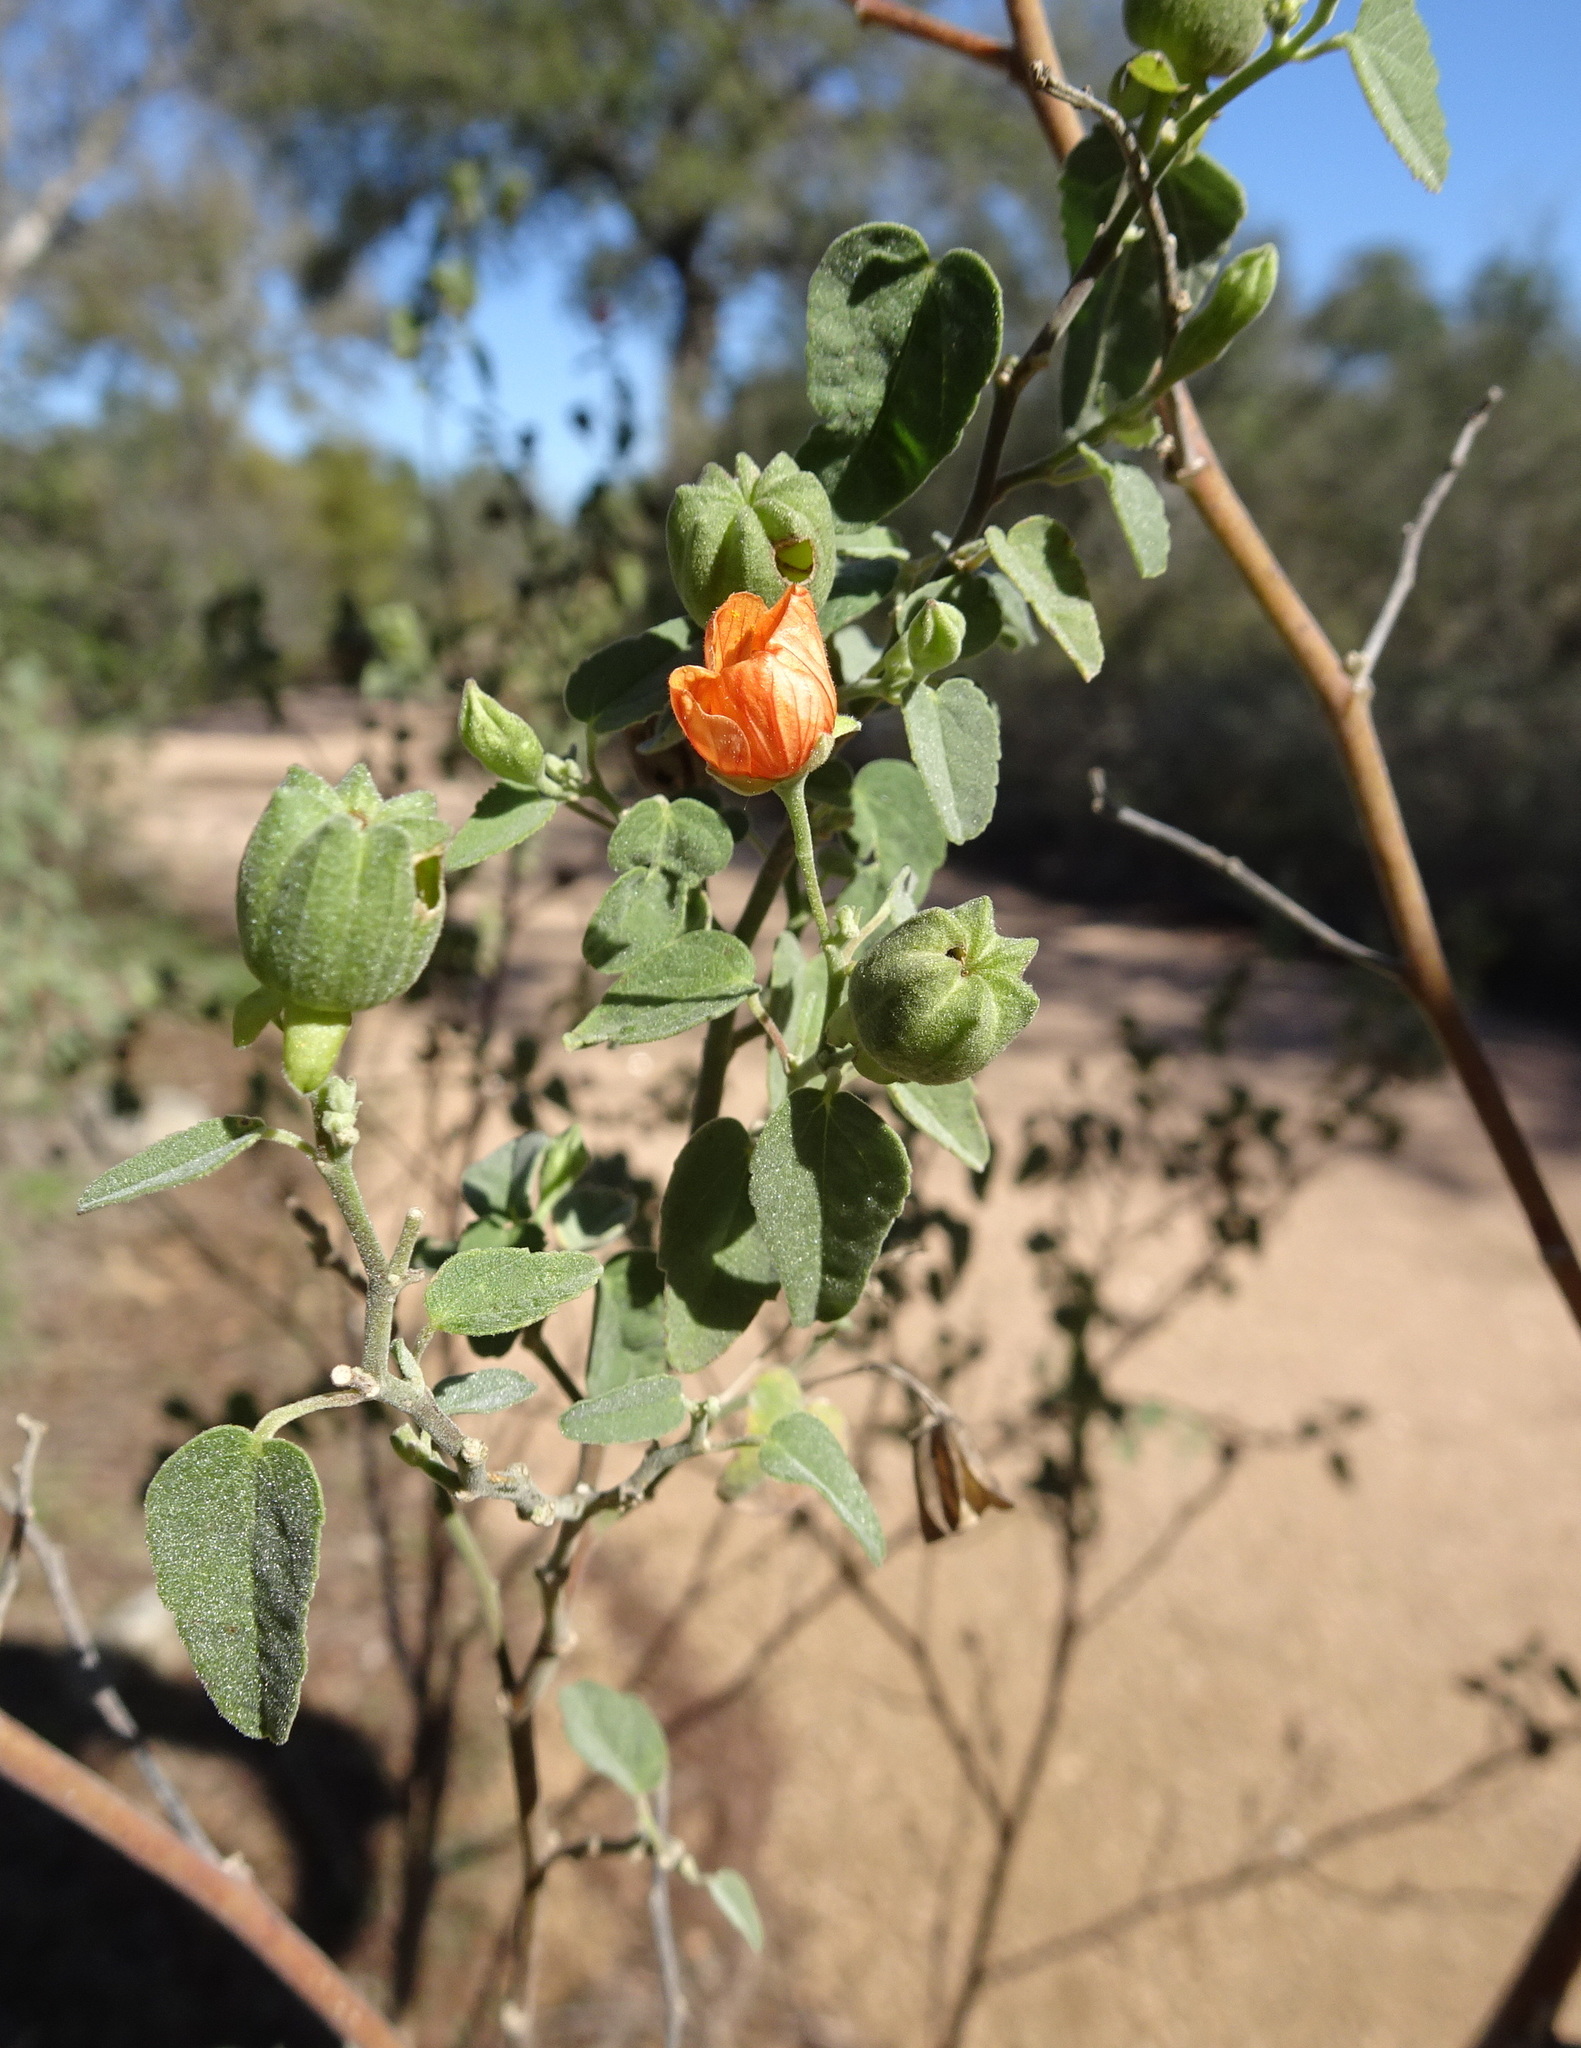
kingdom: Plantae
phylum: Tracheophyta
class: Magnoliopsida
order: Malvales
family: Malvaceae
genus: Abutilon
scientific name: Abutilon fruticosum
